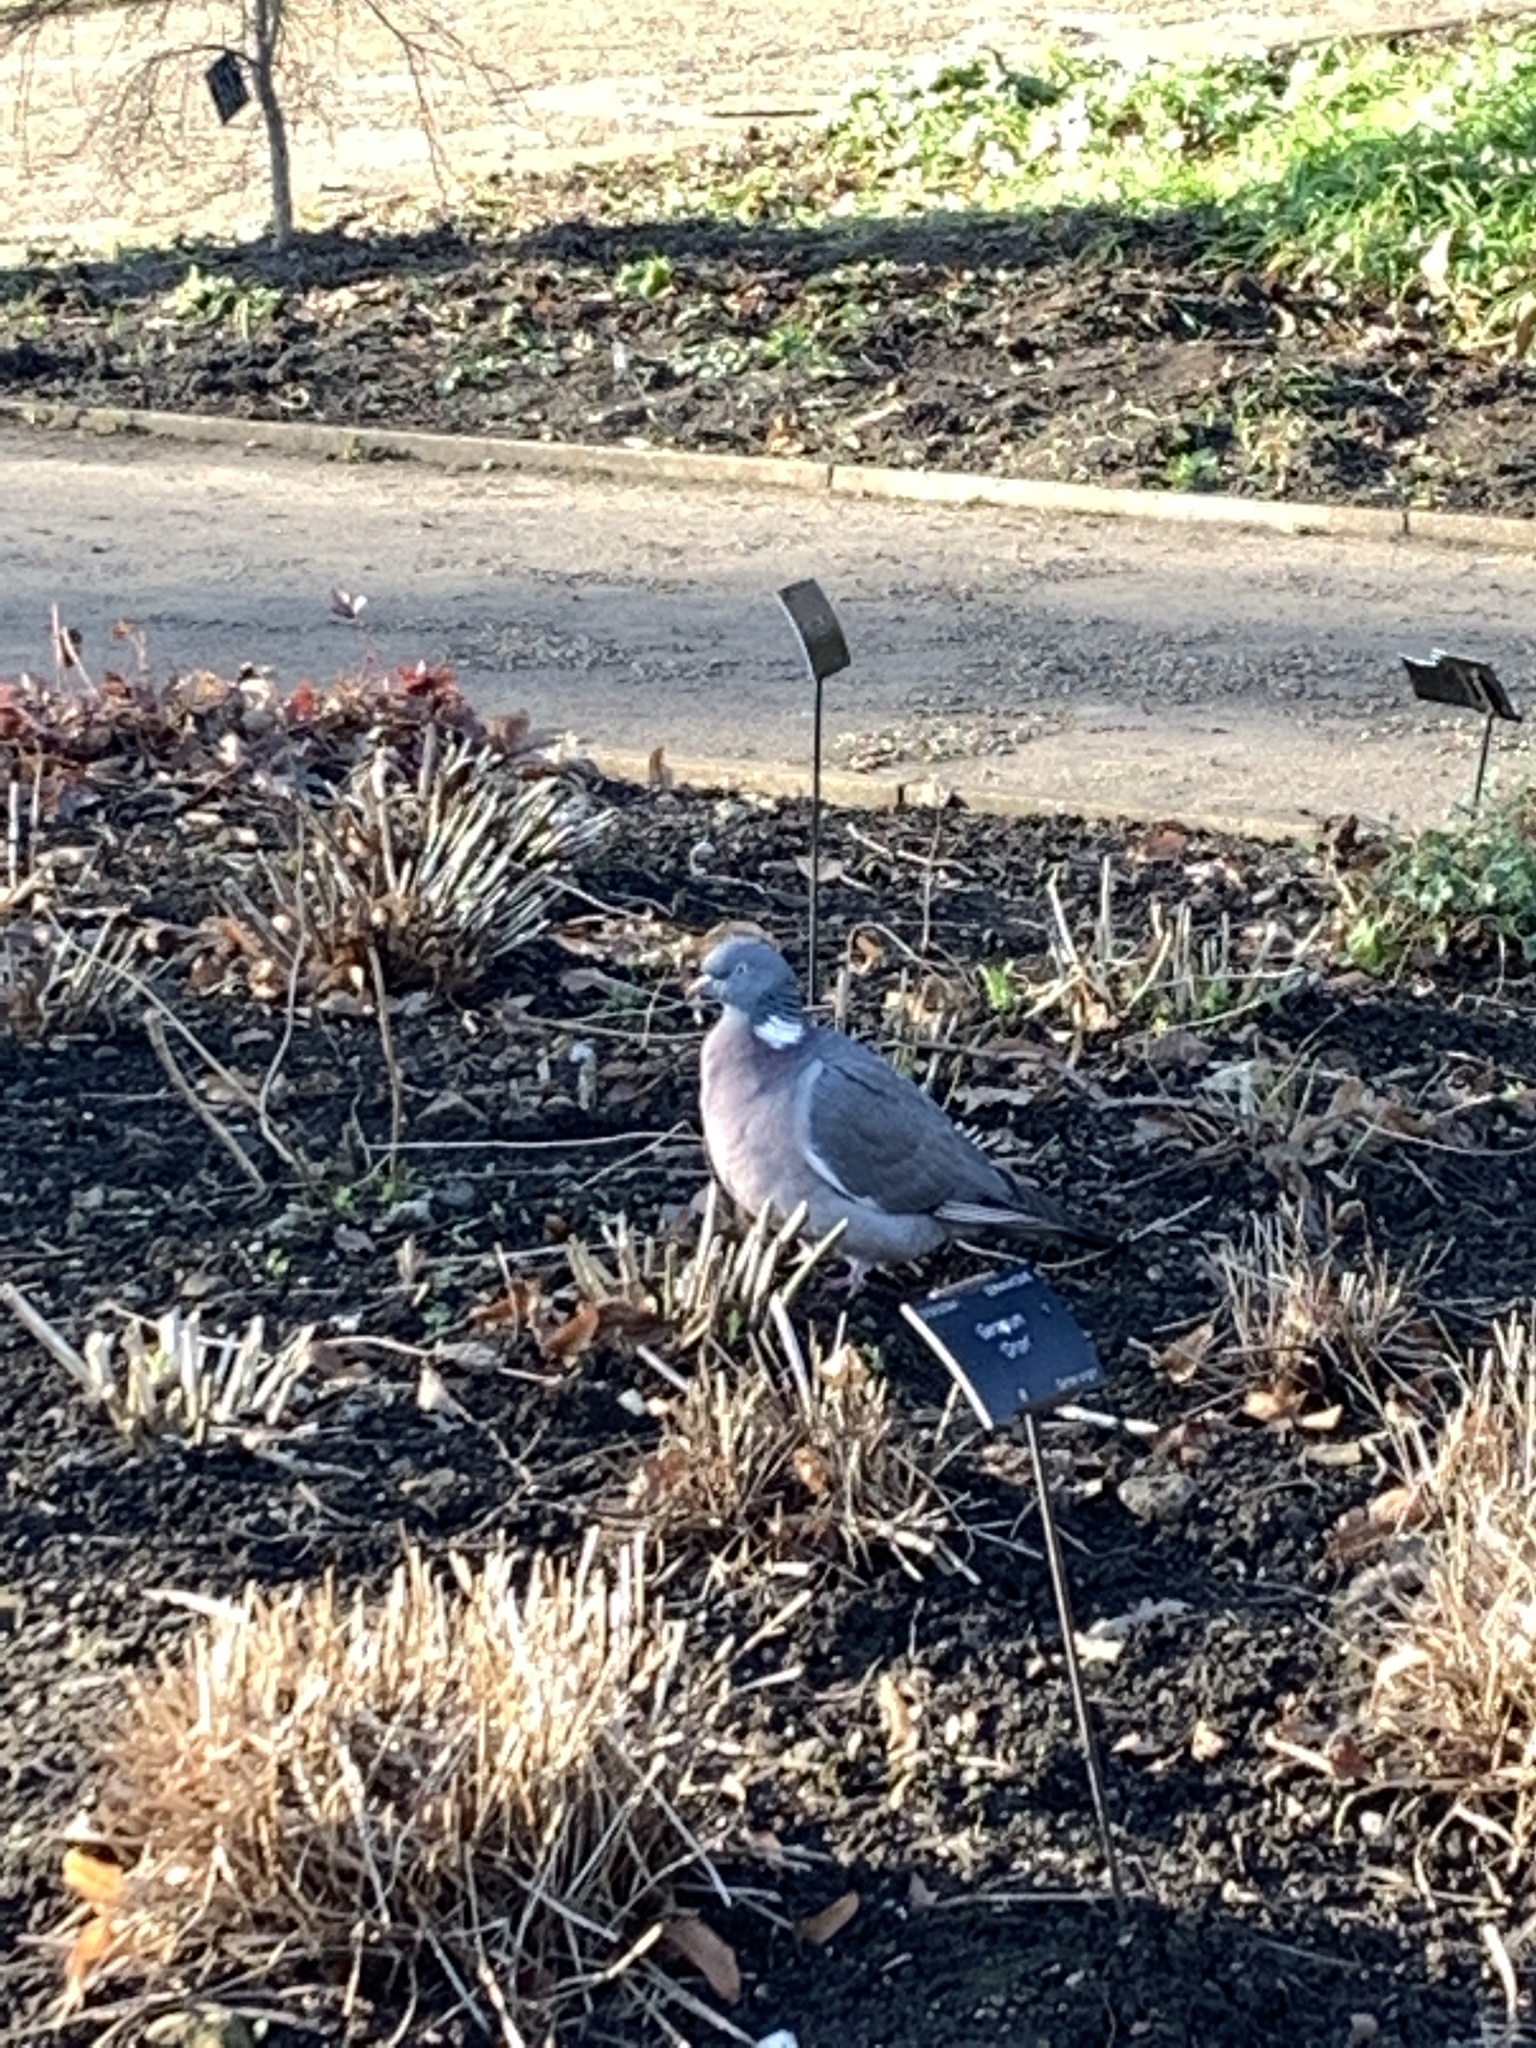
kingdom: Animalia
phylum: Chordata
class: Aves
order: Columbiformes
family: Columbidae
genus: Columba
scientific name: Columba palumbus
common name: Common wood pigeon
